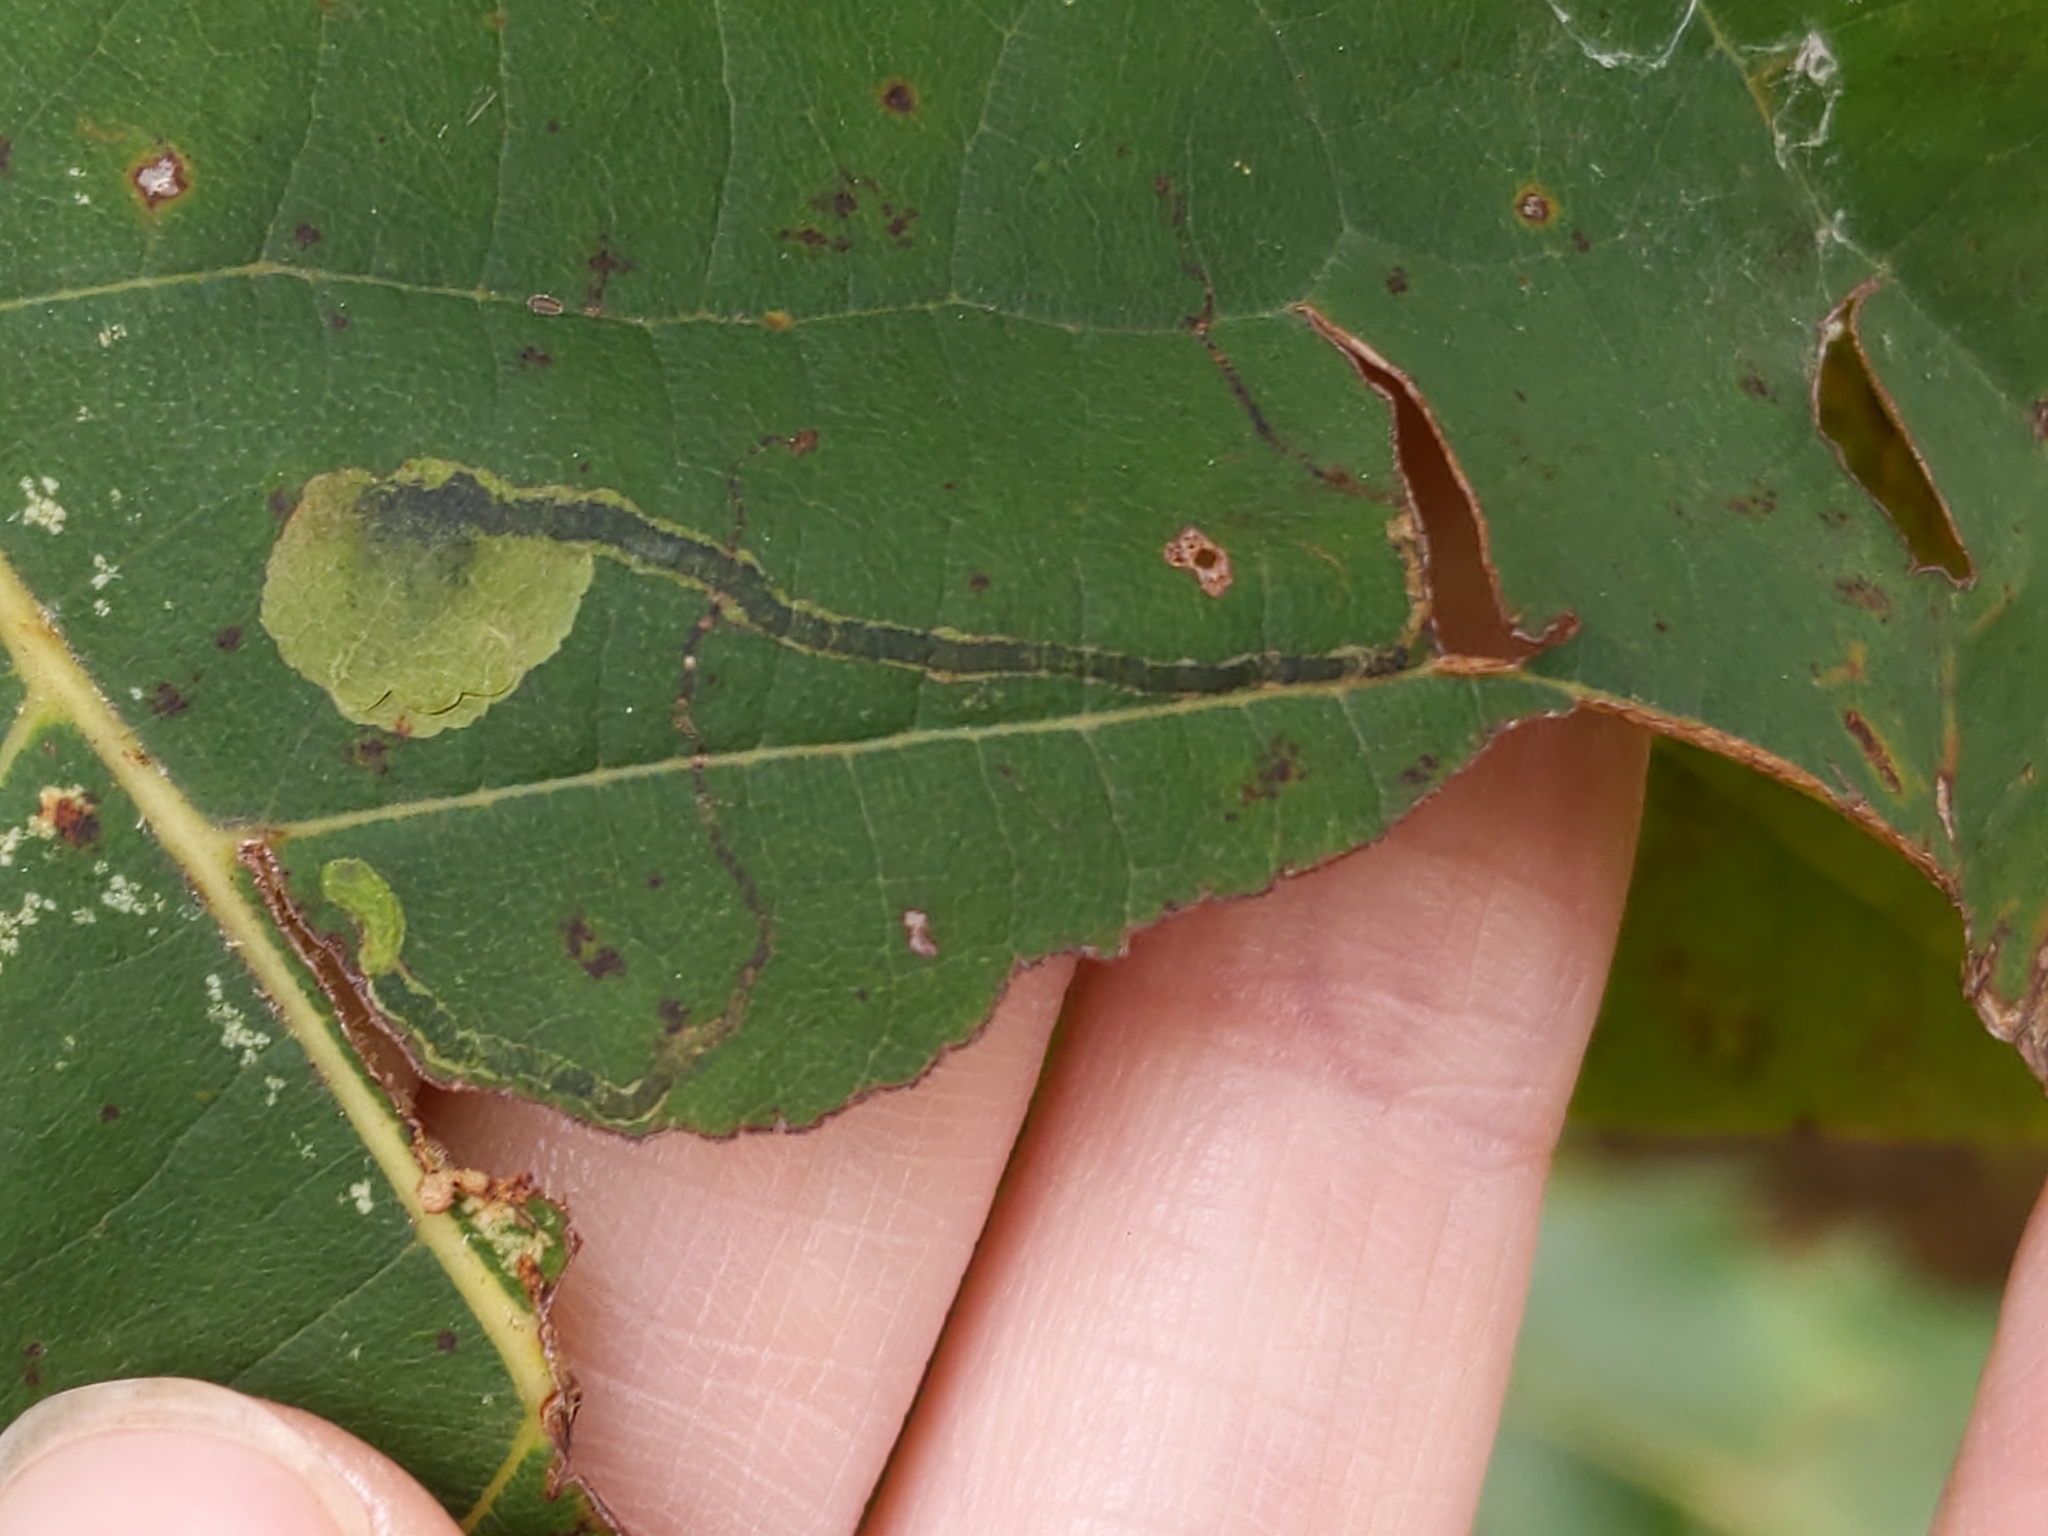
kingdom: Animalia
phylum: Arthropoda
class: Insecta
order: Lepidoptera
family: Nepticulidae
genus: Ectoedemia
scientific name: Ectoedemia clemensella
